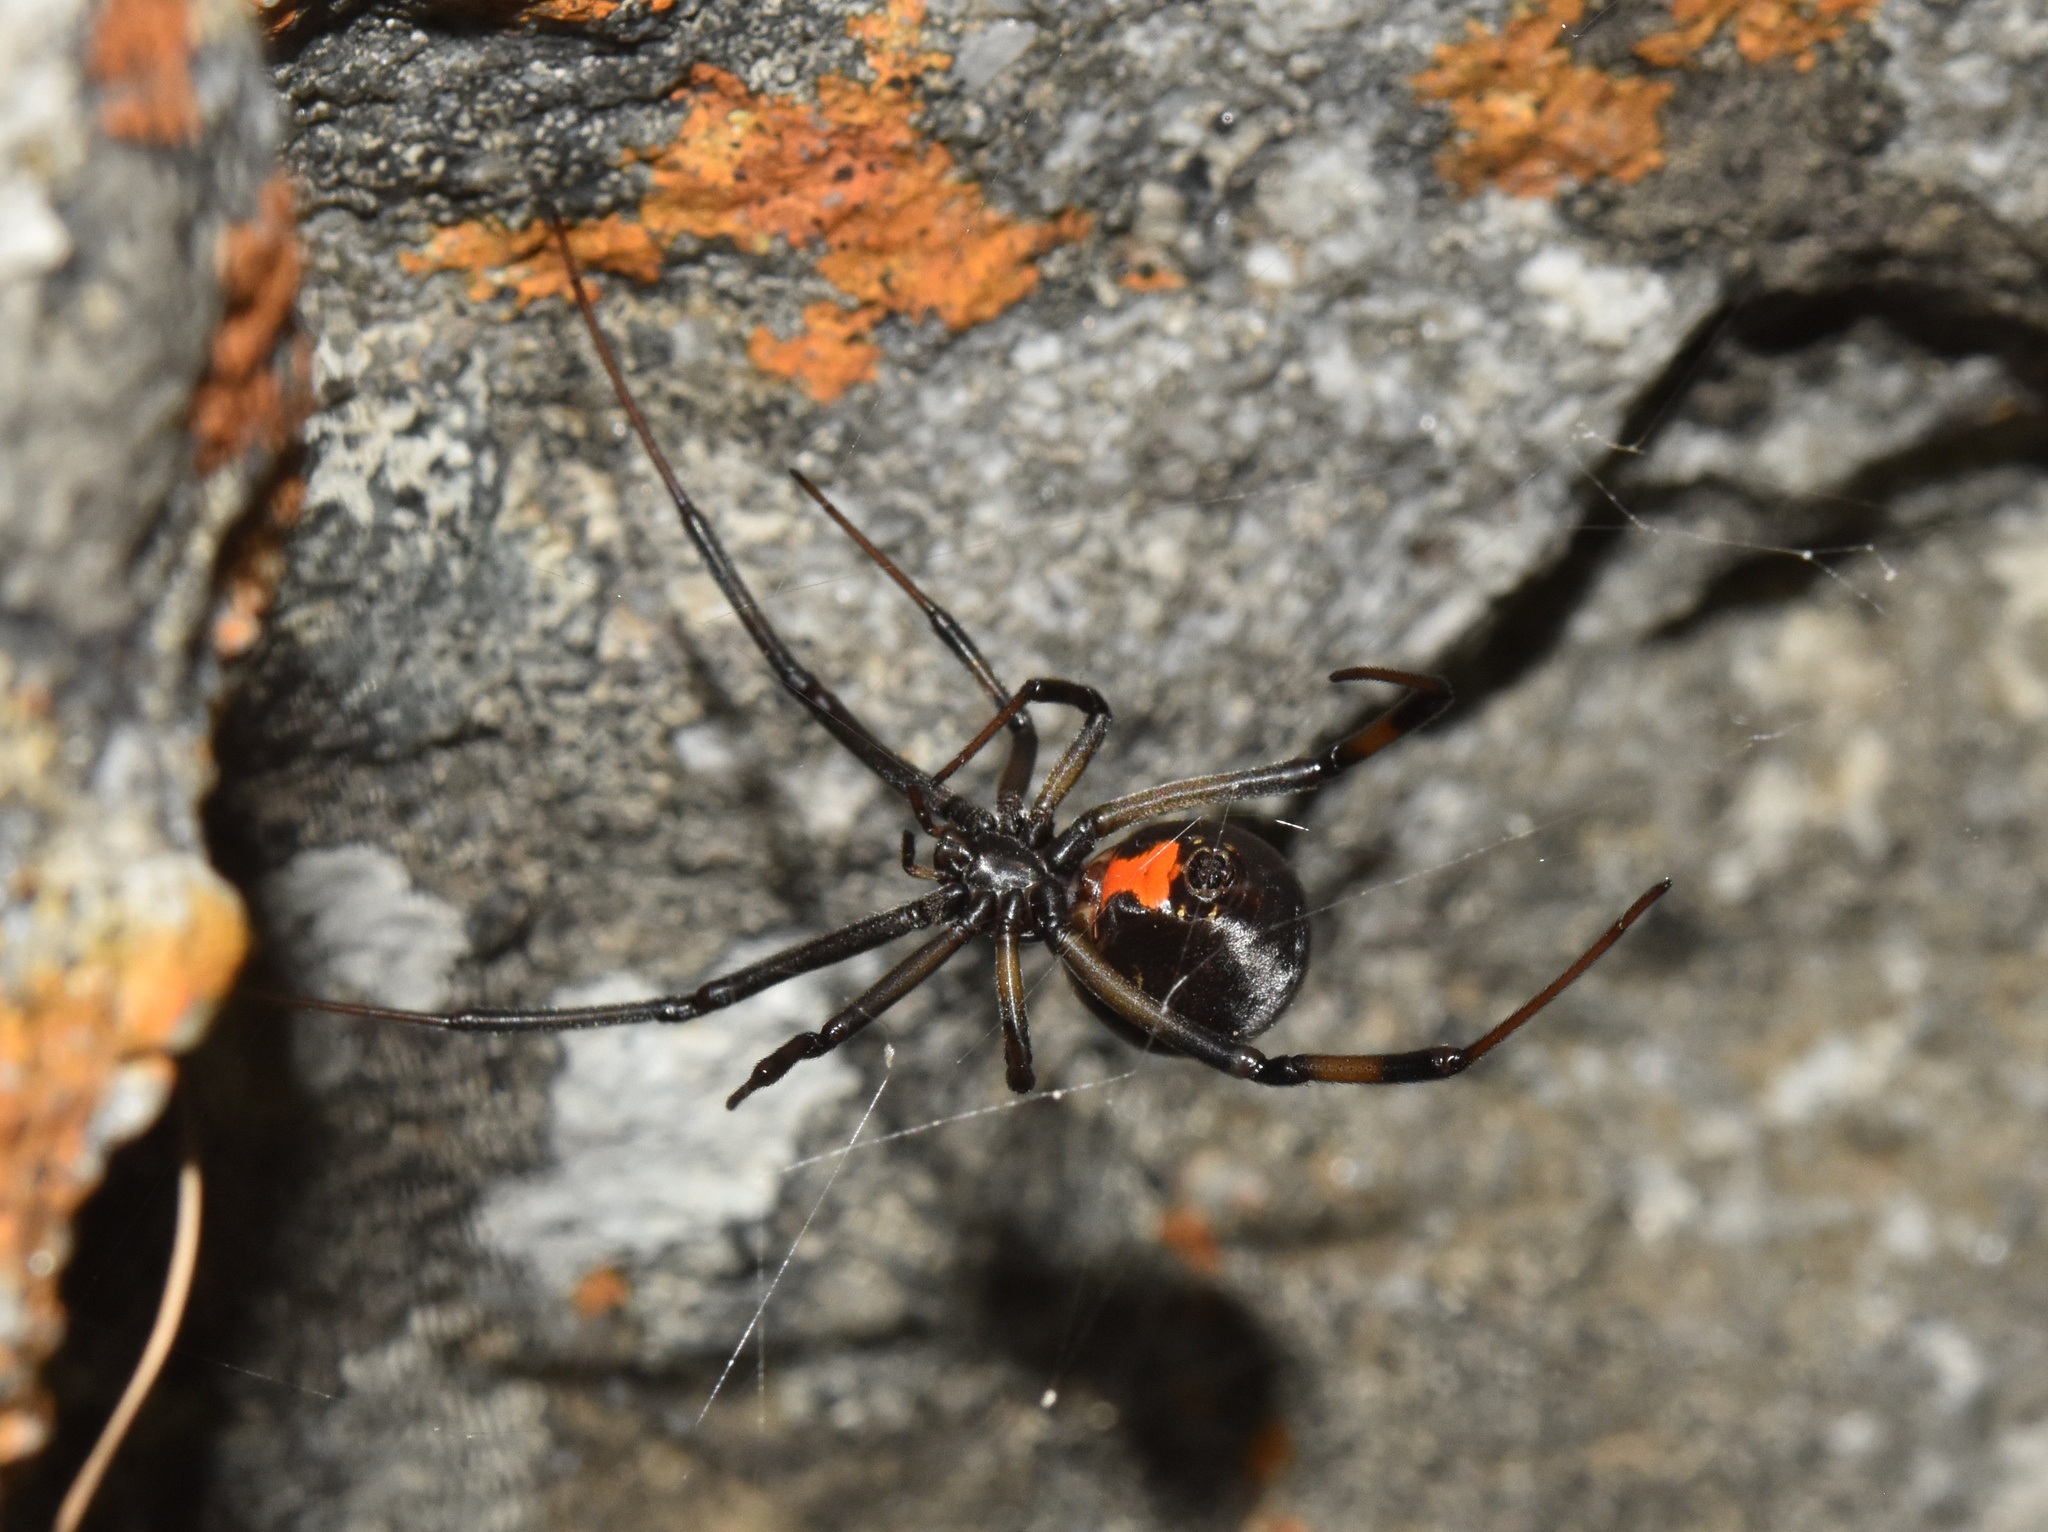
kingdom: Animalia
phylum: Arthropoda
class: Arachnida
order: Araneae
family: Theridiidae
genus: Latrodectus
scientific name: Latrodectus geometricus
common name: Brown widow spider
